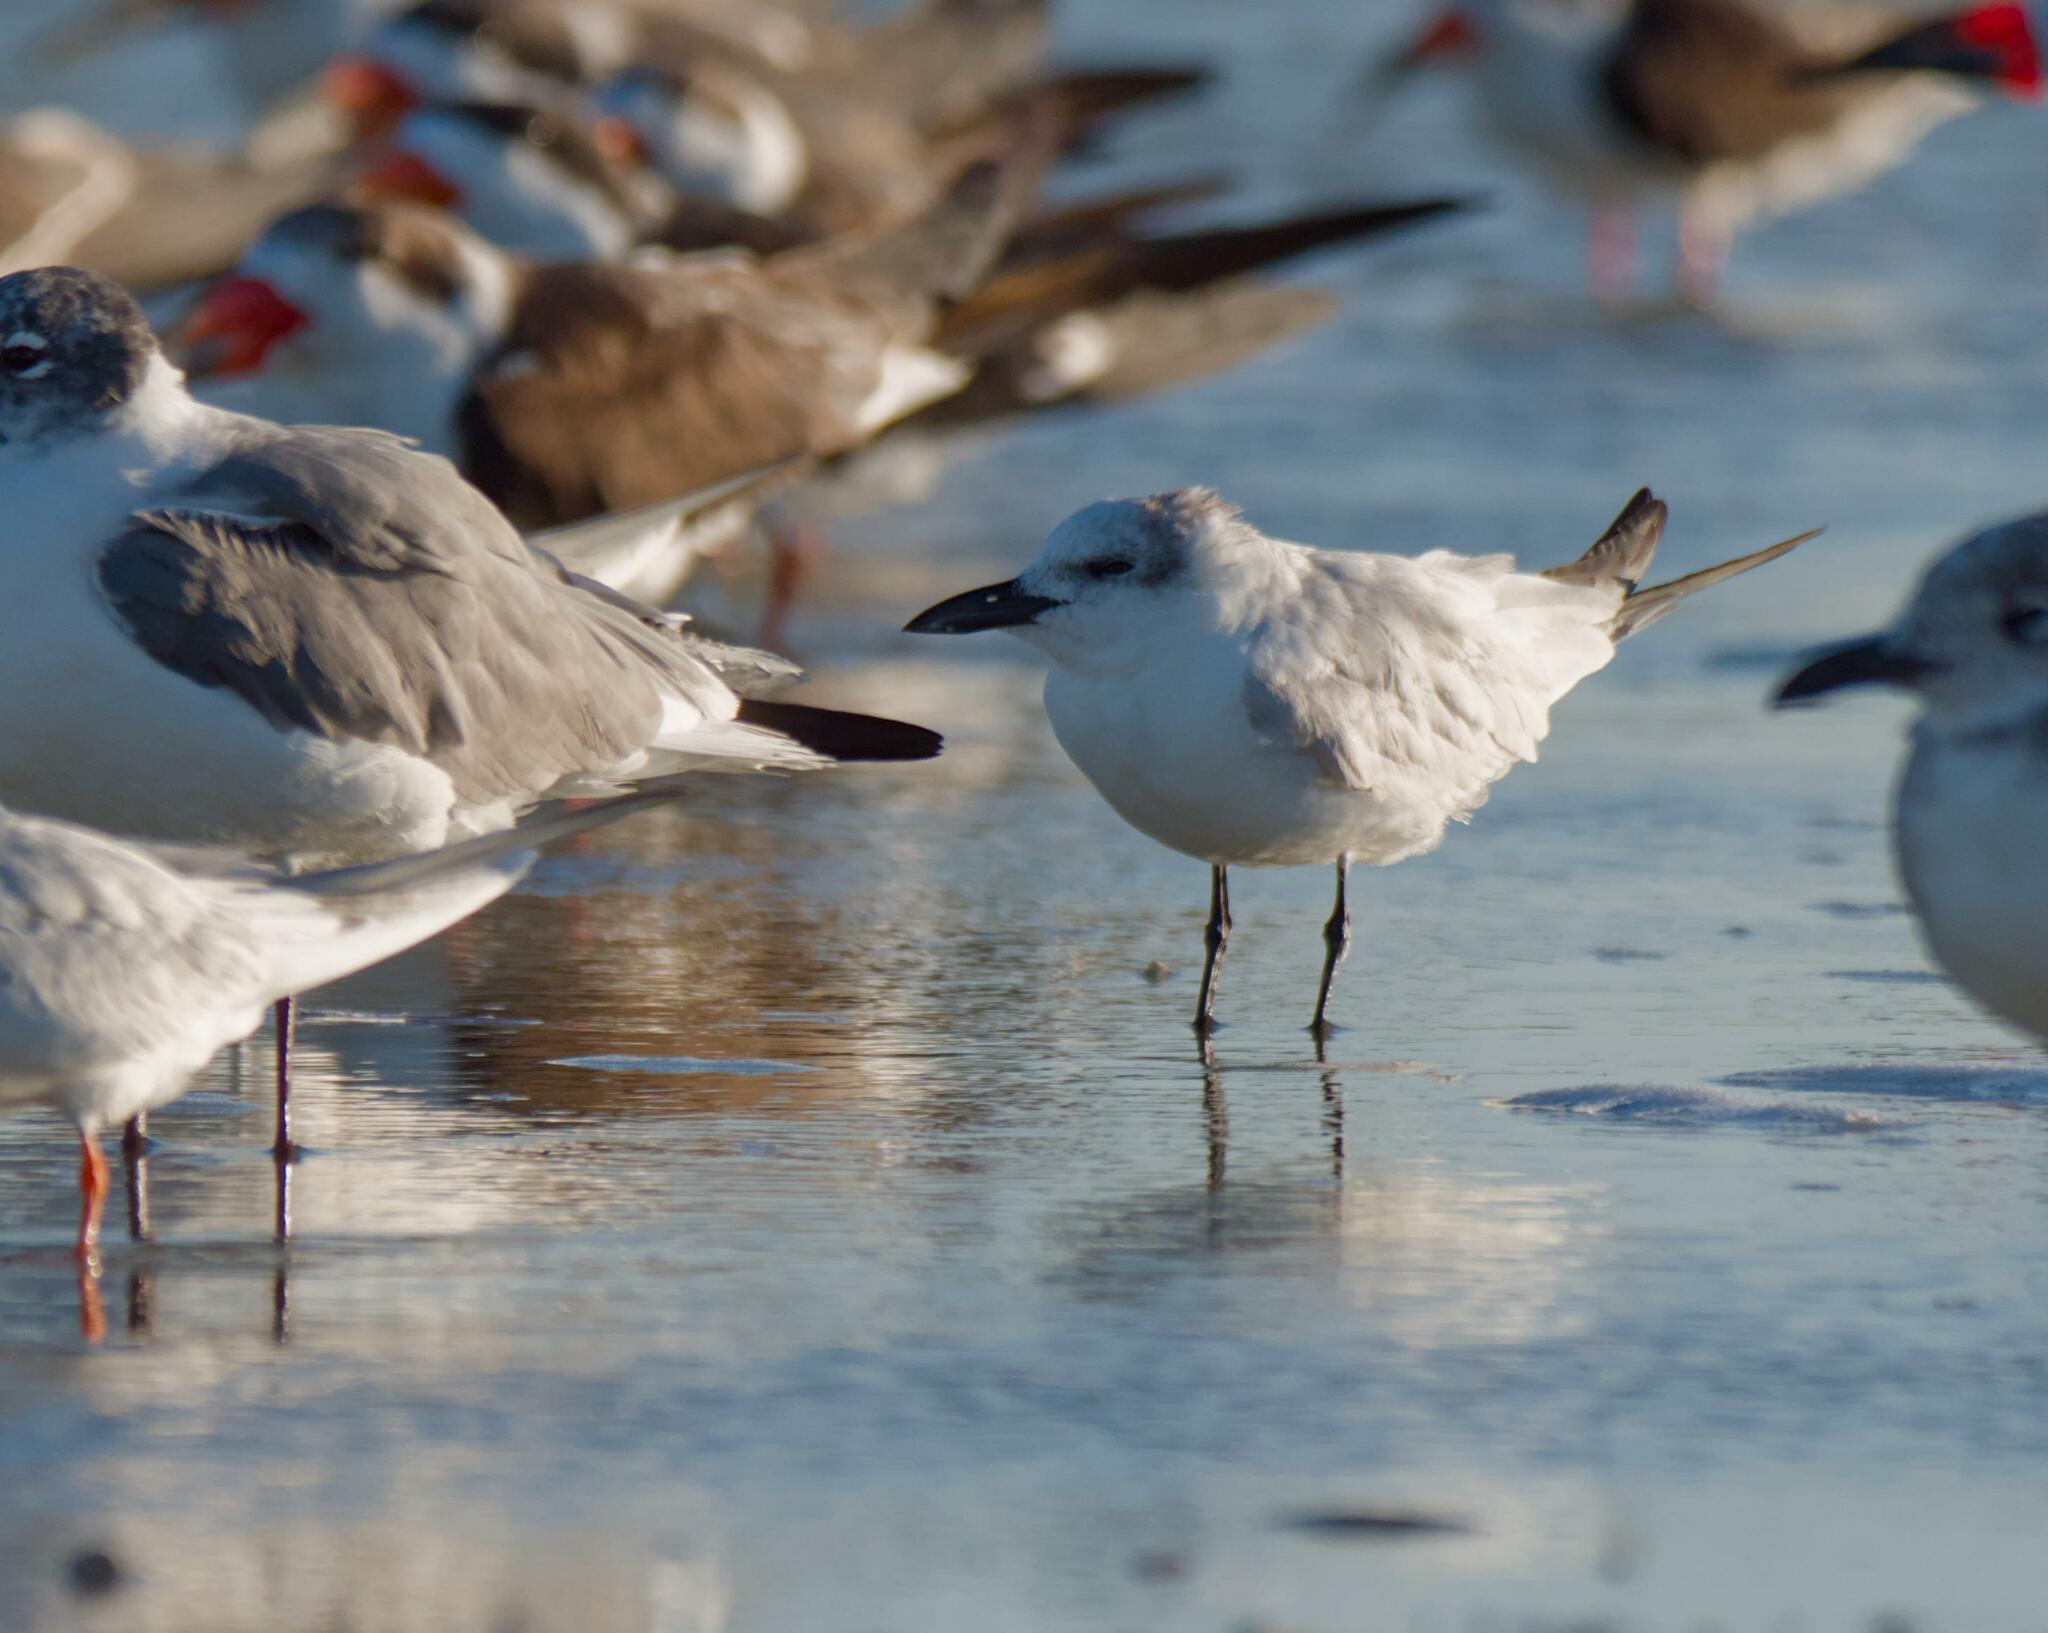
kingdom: Animalia
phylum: Chordata
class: Aves
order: Charadriiformes
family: Laridae
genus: Gelochelidon
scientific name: Gelochelidon nilotica
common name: Gull-billed tern
